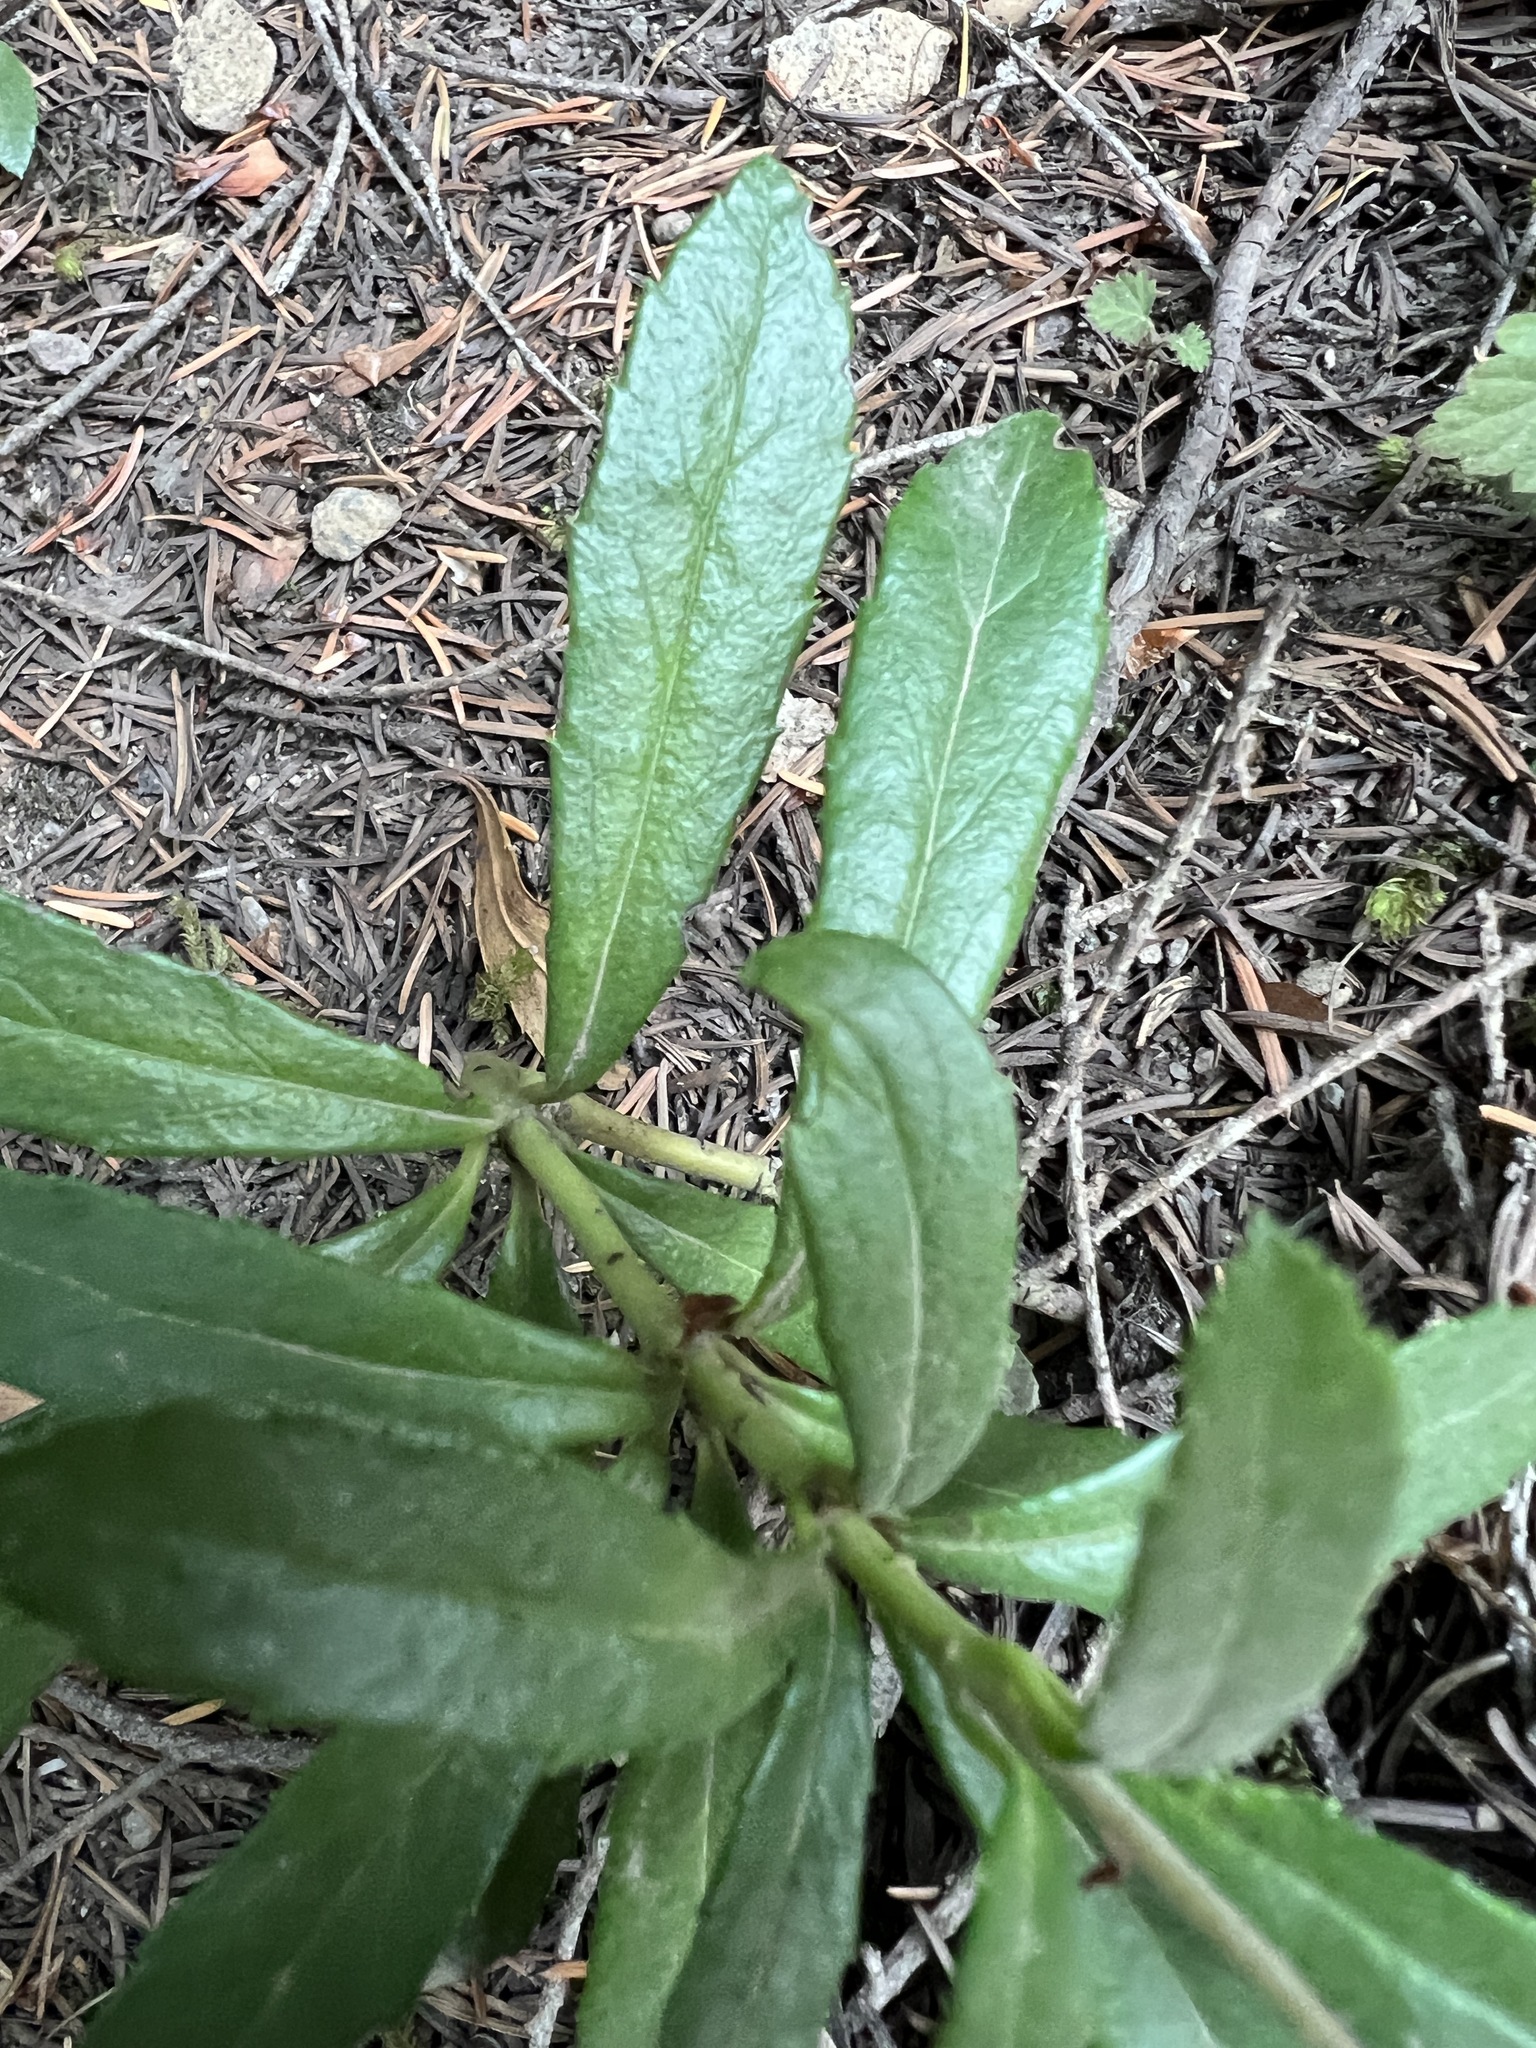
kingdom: Plantae
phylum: Tracheophyta
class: Magnoliopsida
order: Ericales
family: Ericaceae
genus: Chimaphila
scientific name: Chimaphila umbellata
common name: Pipsissewa
